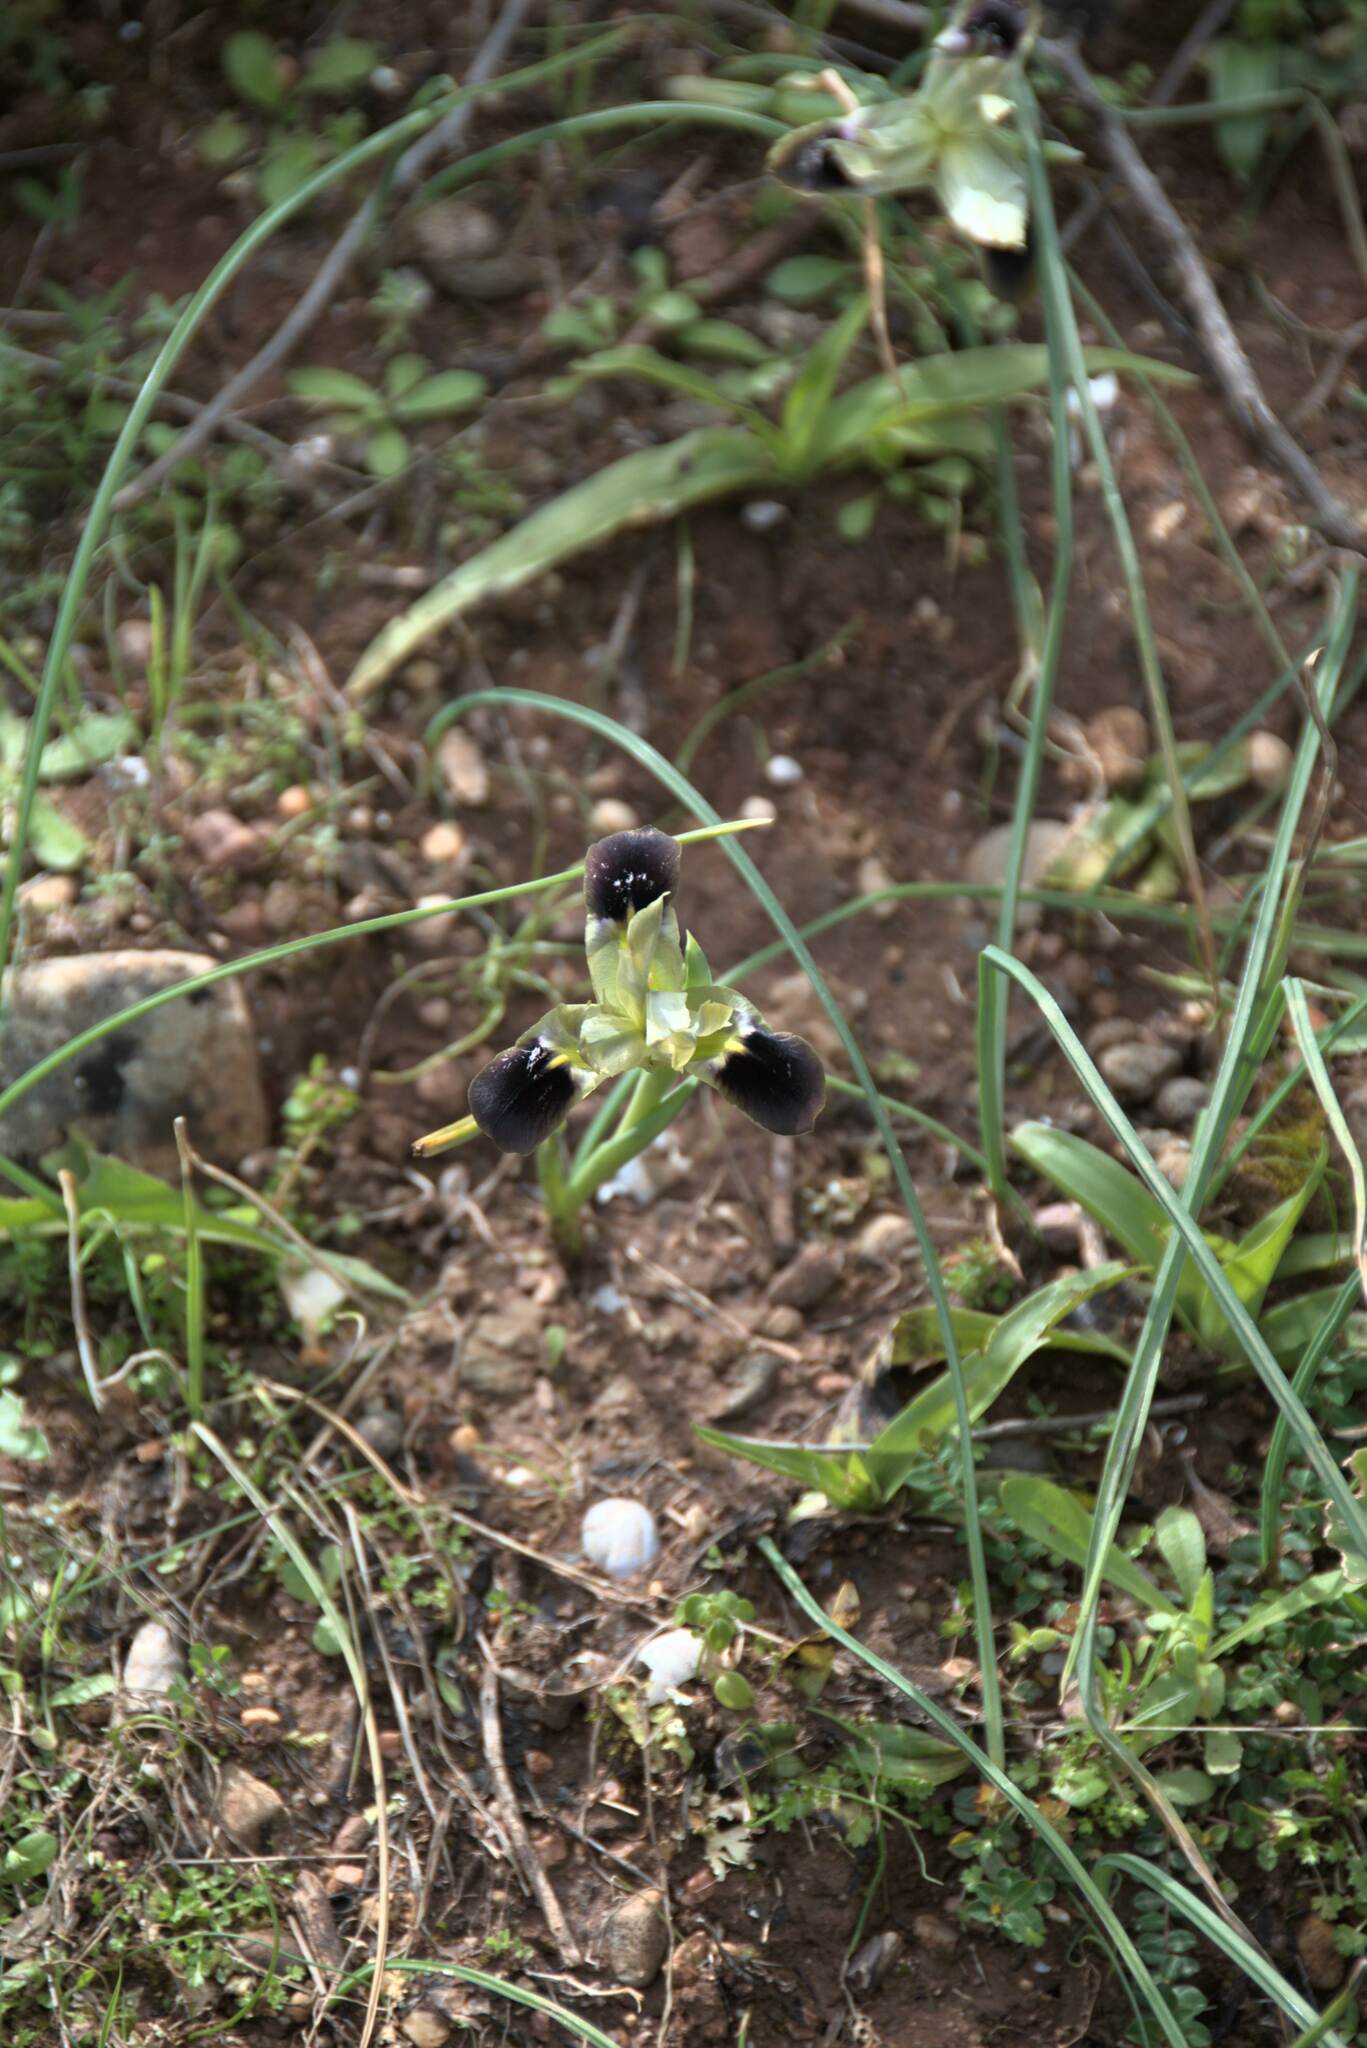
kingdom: Plantae
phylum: Tracheophyta
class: Liliopsida
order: Asparagales
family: Iridaceae
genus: Iris
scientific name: Iris tuberosa
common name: Snake's-head iris
